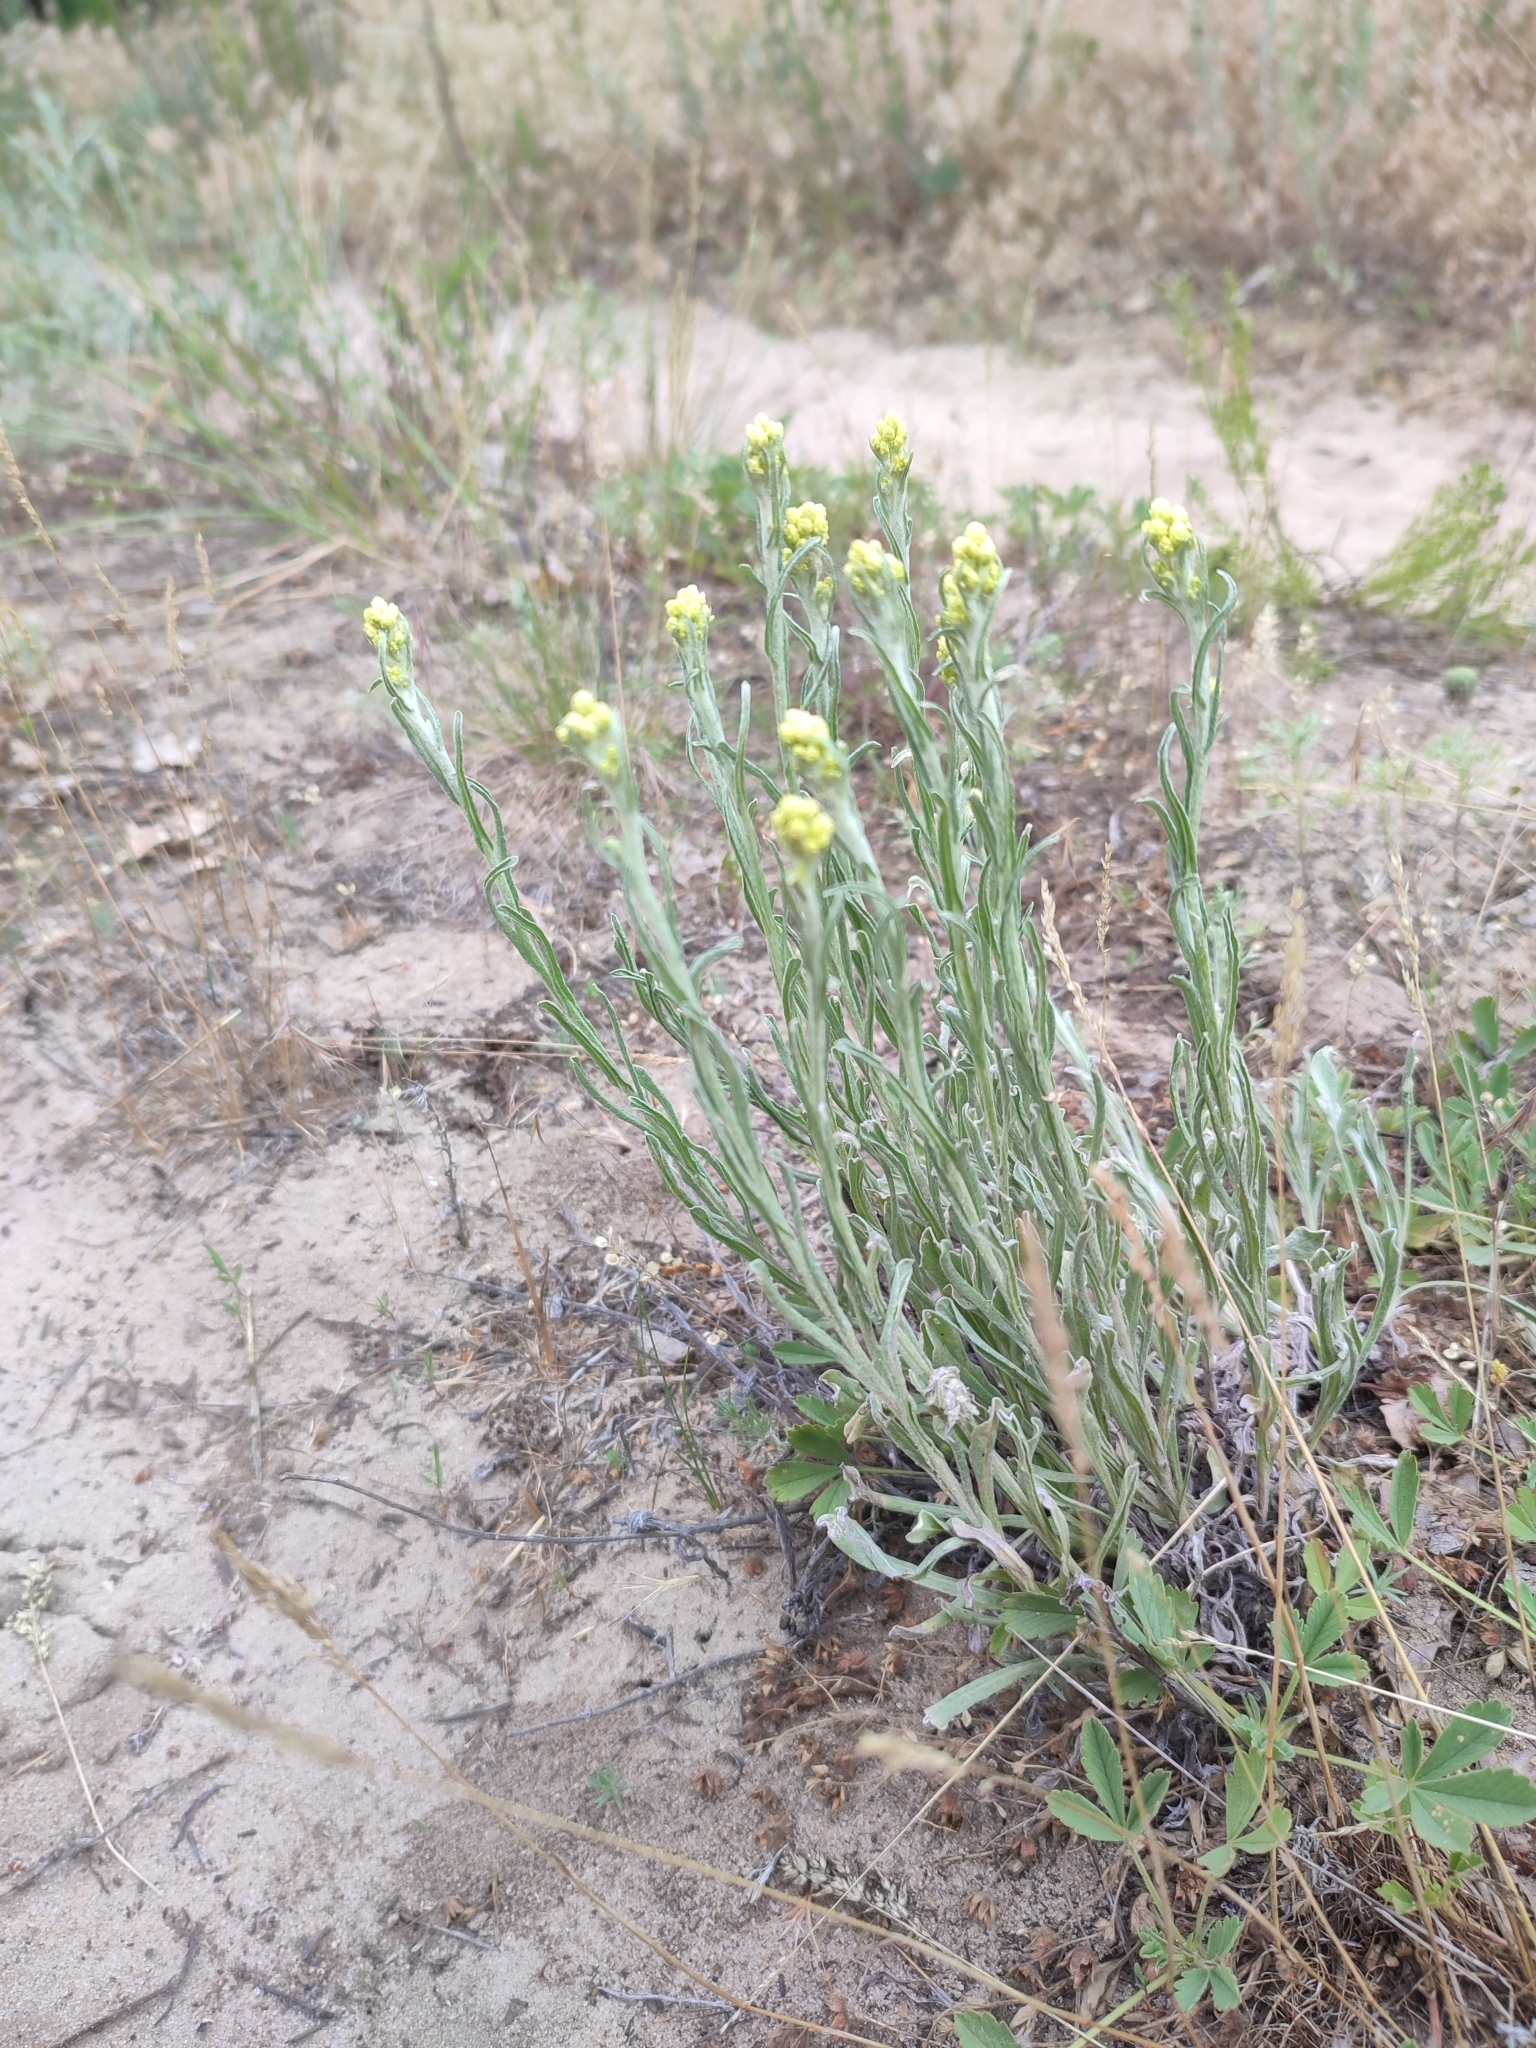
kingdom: Plantae
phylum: Tracheophyta
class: Magnoliopsida
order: Asterales
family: Asteraceae
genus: Helichrysum
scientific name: Helichrysum arenarium
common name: Strawflower
